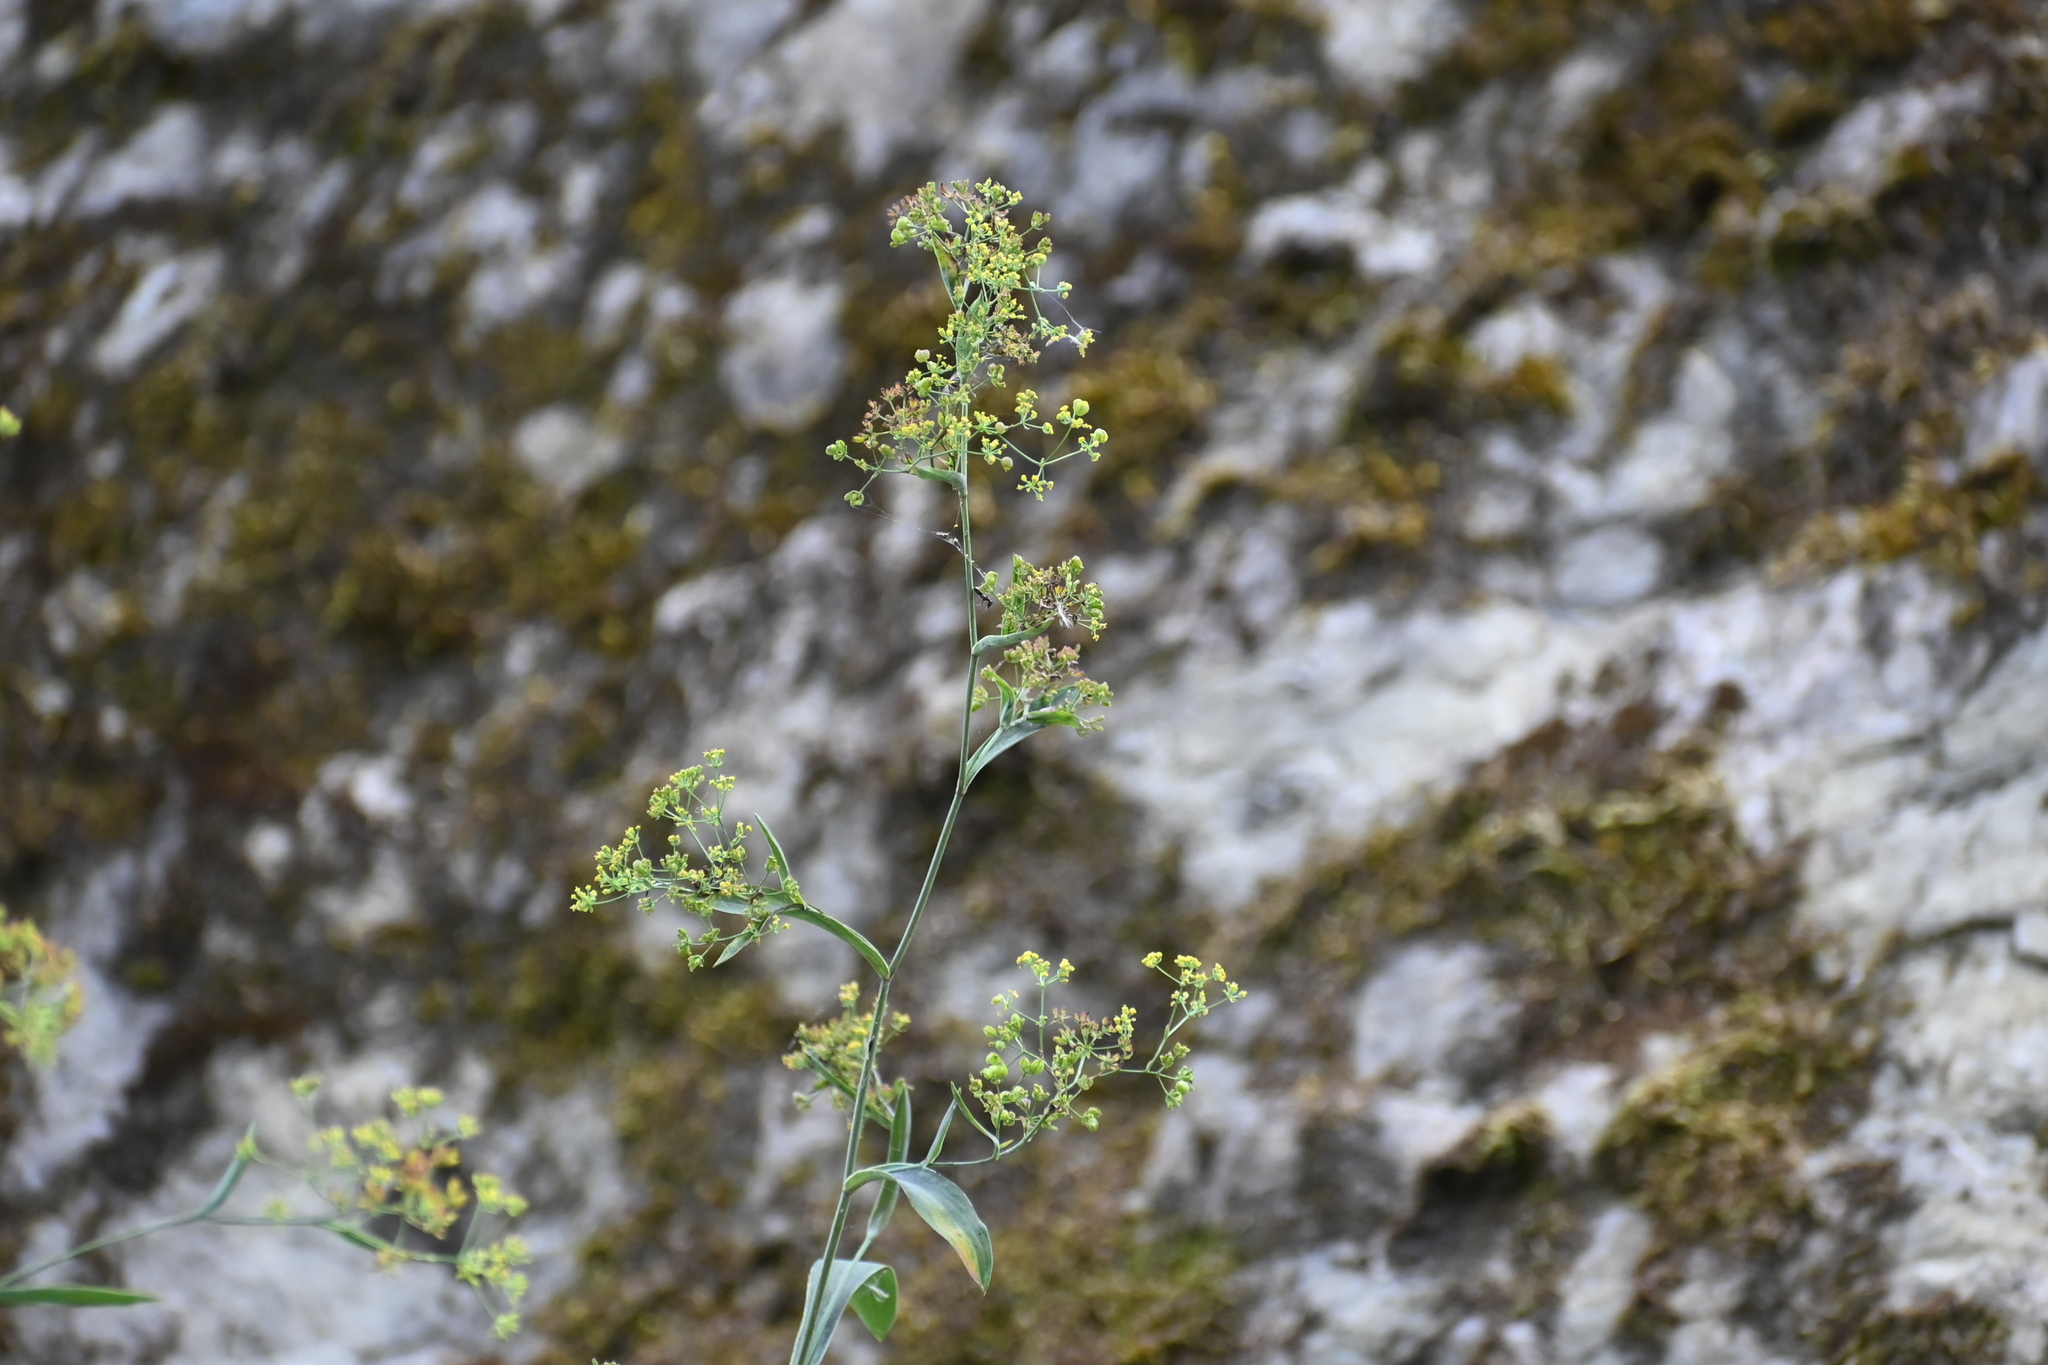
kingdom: Plantae
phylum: Tracheophyta
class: Magnoliopsida
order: Apiales
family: Apiaceae
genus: Bupleurum
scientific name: Bupleurum falcatum
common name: Sickle-leaved hare's-ear
